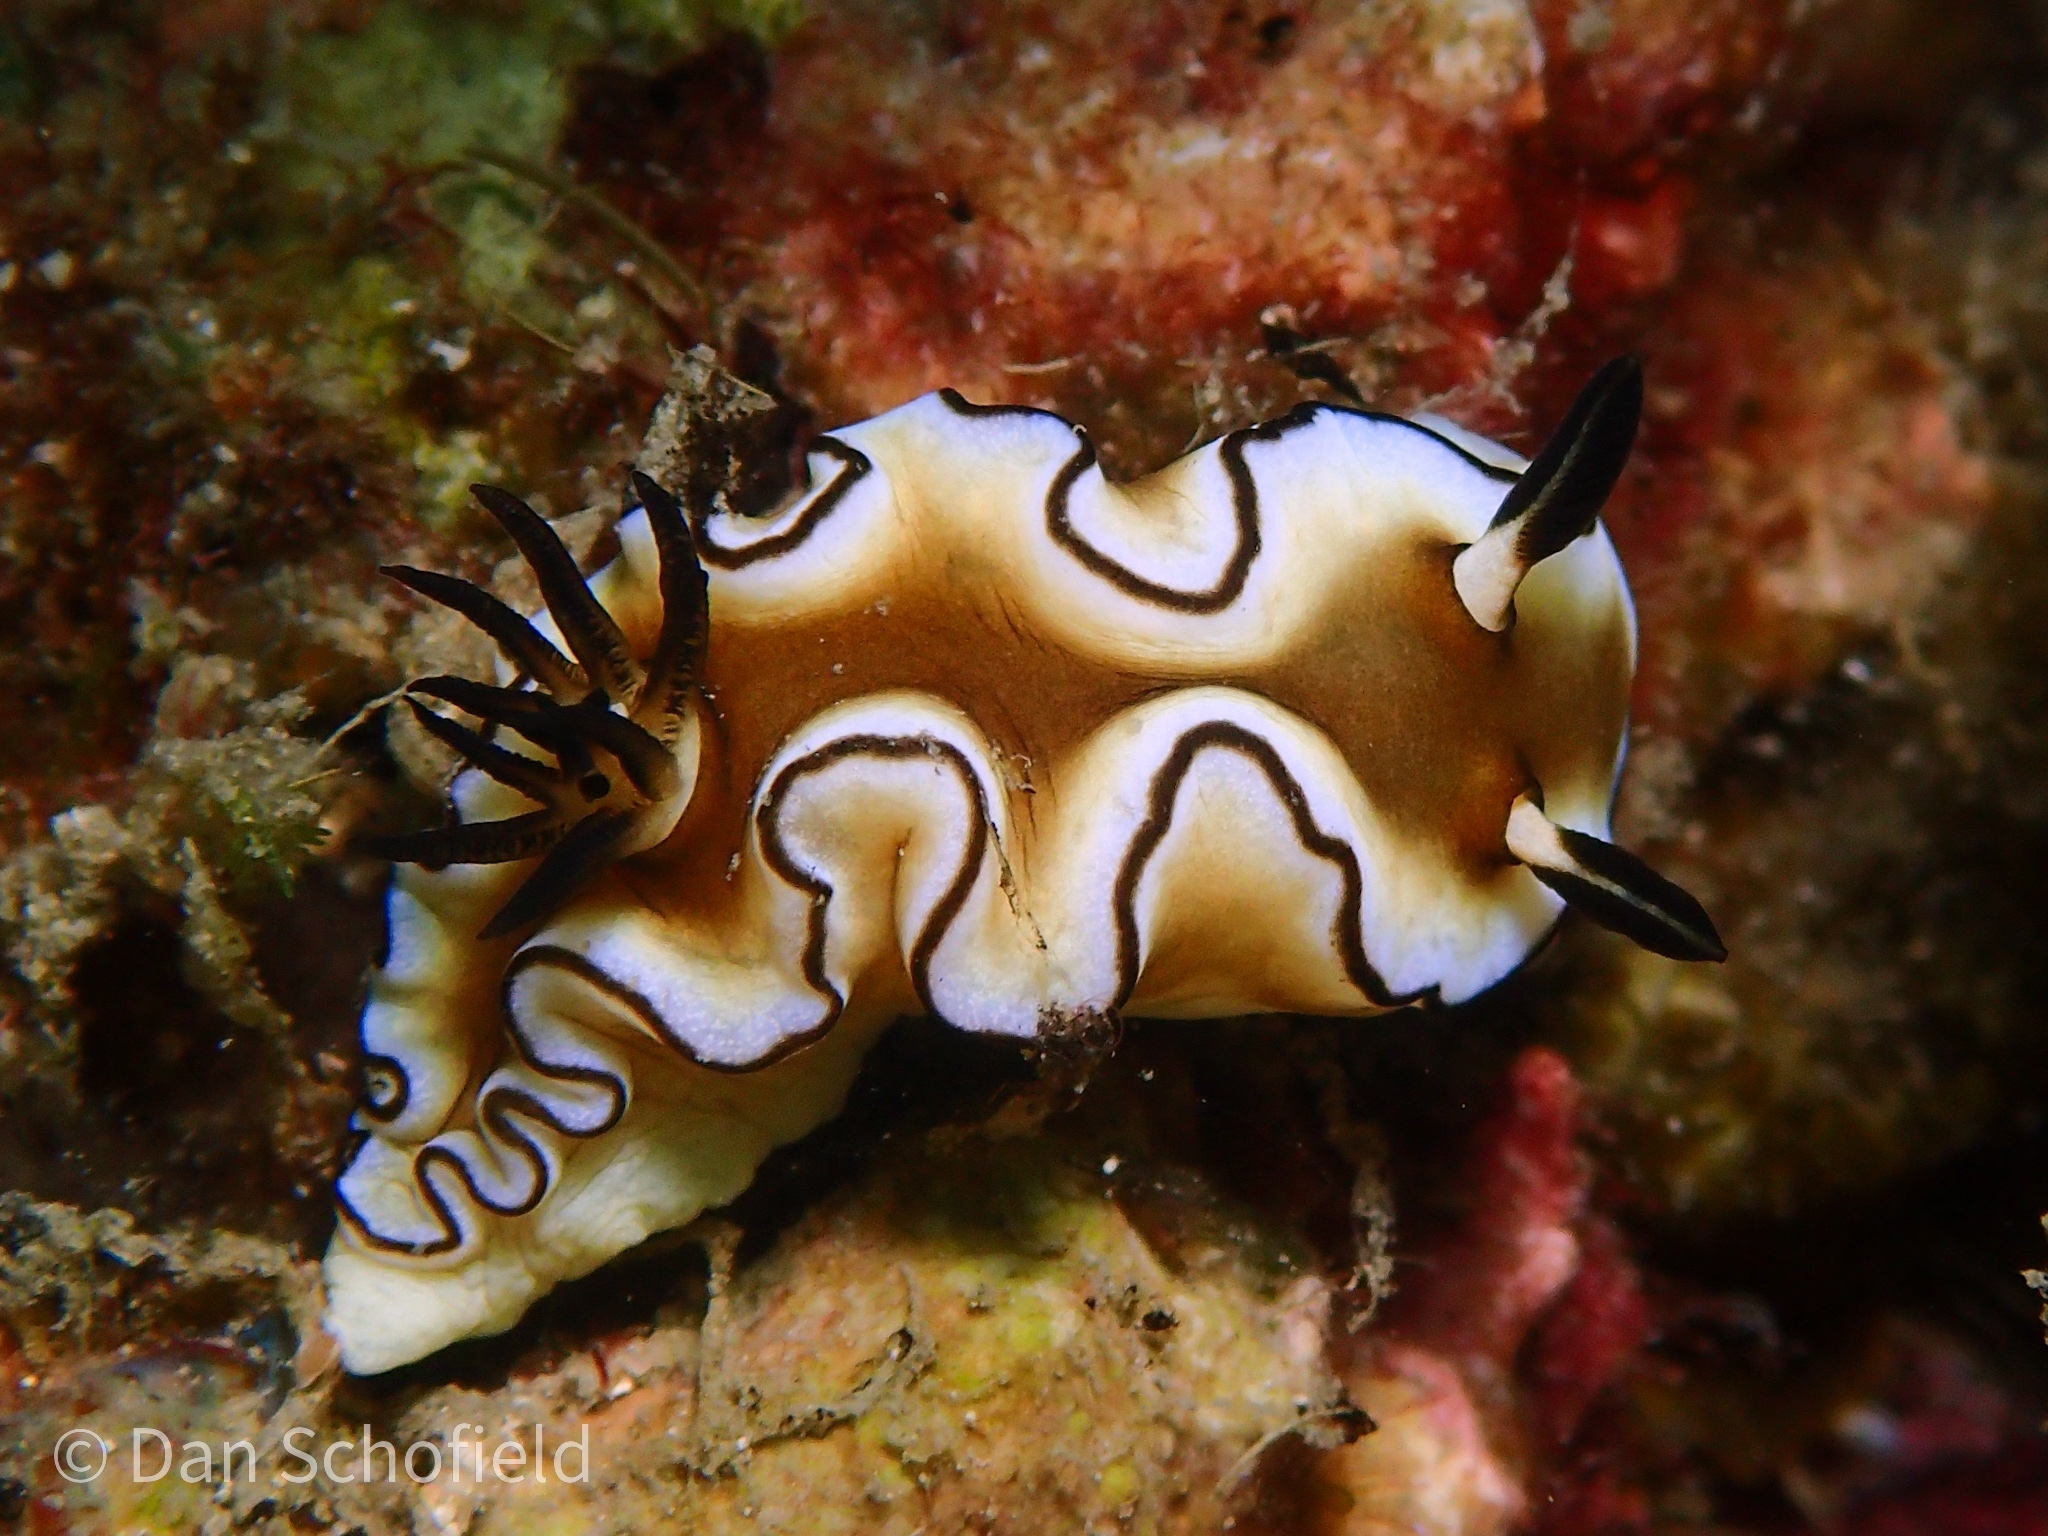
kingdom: Animalia
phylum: Mollusca
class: Gastropoda
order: Nudibranchia
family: Chromodorididae
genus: Doriprismatica
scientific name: Doriprismatica atromarginata
